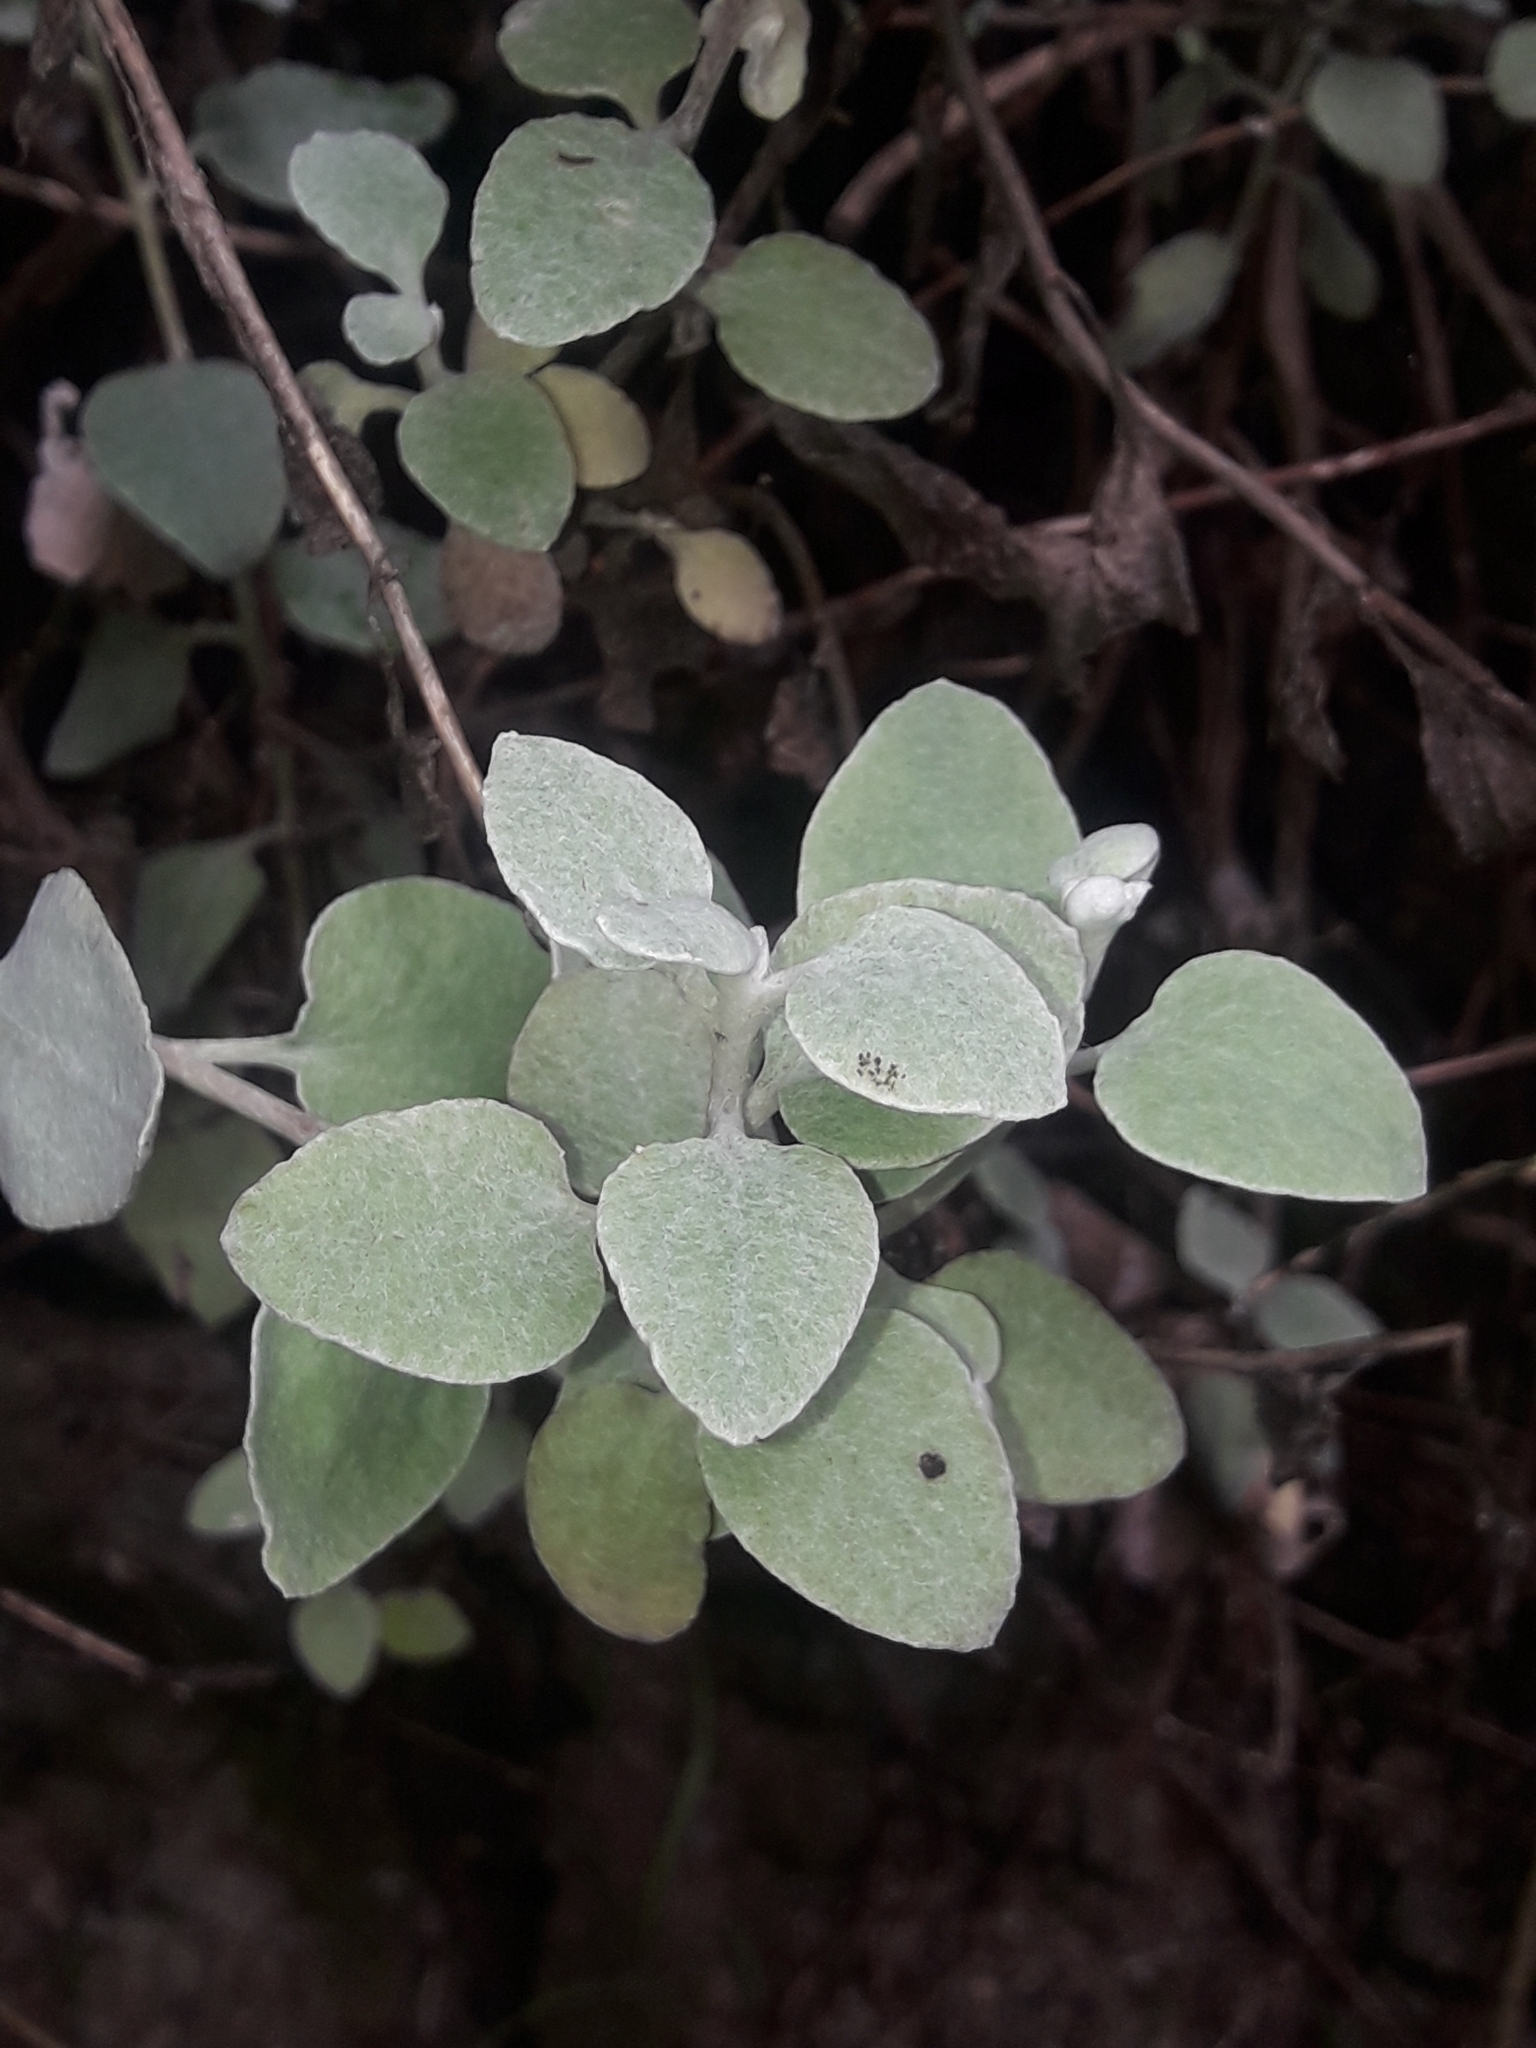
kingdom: Plantae
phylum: Tracheophyta
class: Magnoliopsida
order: Asterales
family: Asteraceae
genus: Helichrysum
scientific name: Helichrysum petiolare
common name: Licorice-plant
